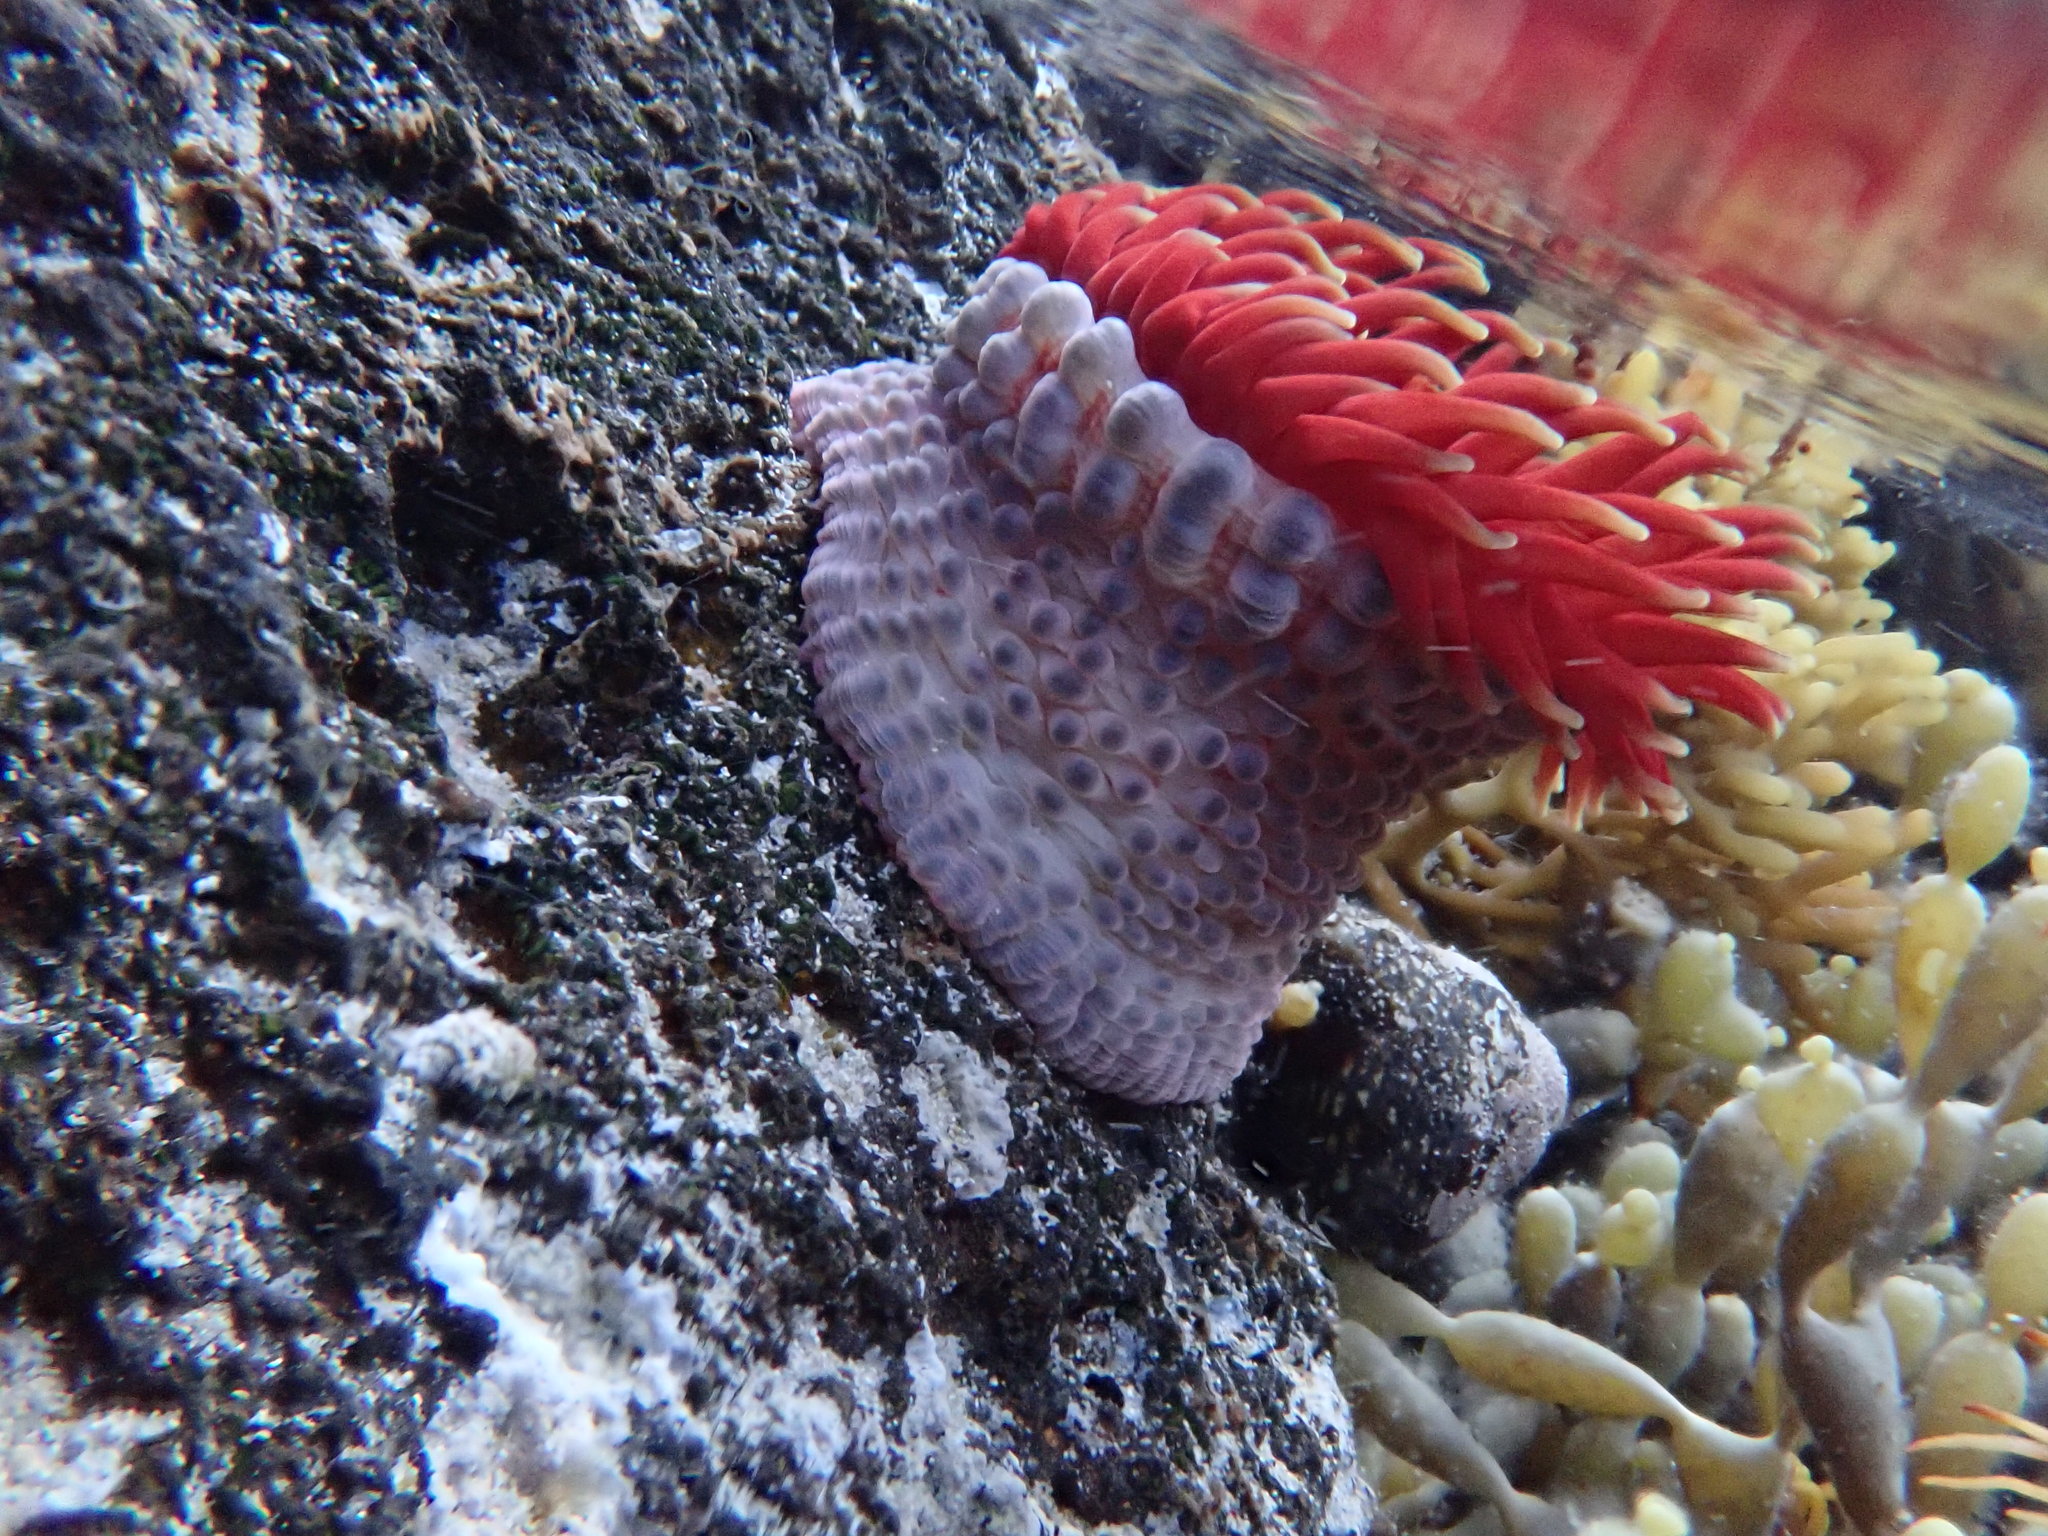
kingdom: Animalia
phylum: Cnidaria
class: Anthozoa
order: Actiniaria
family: Actiniidae
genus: Phlyctenanthus
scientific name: Phlyctenanthus australis
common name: Southern anemone
